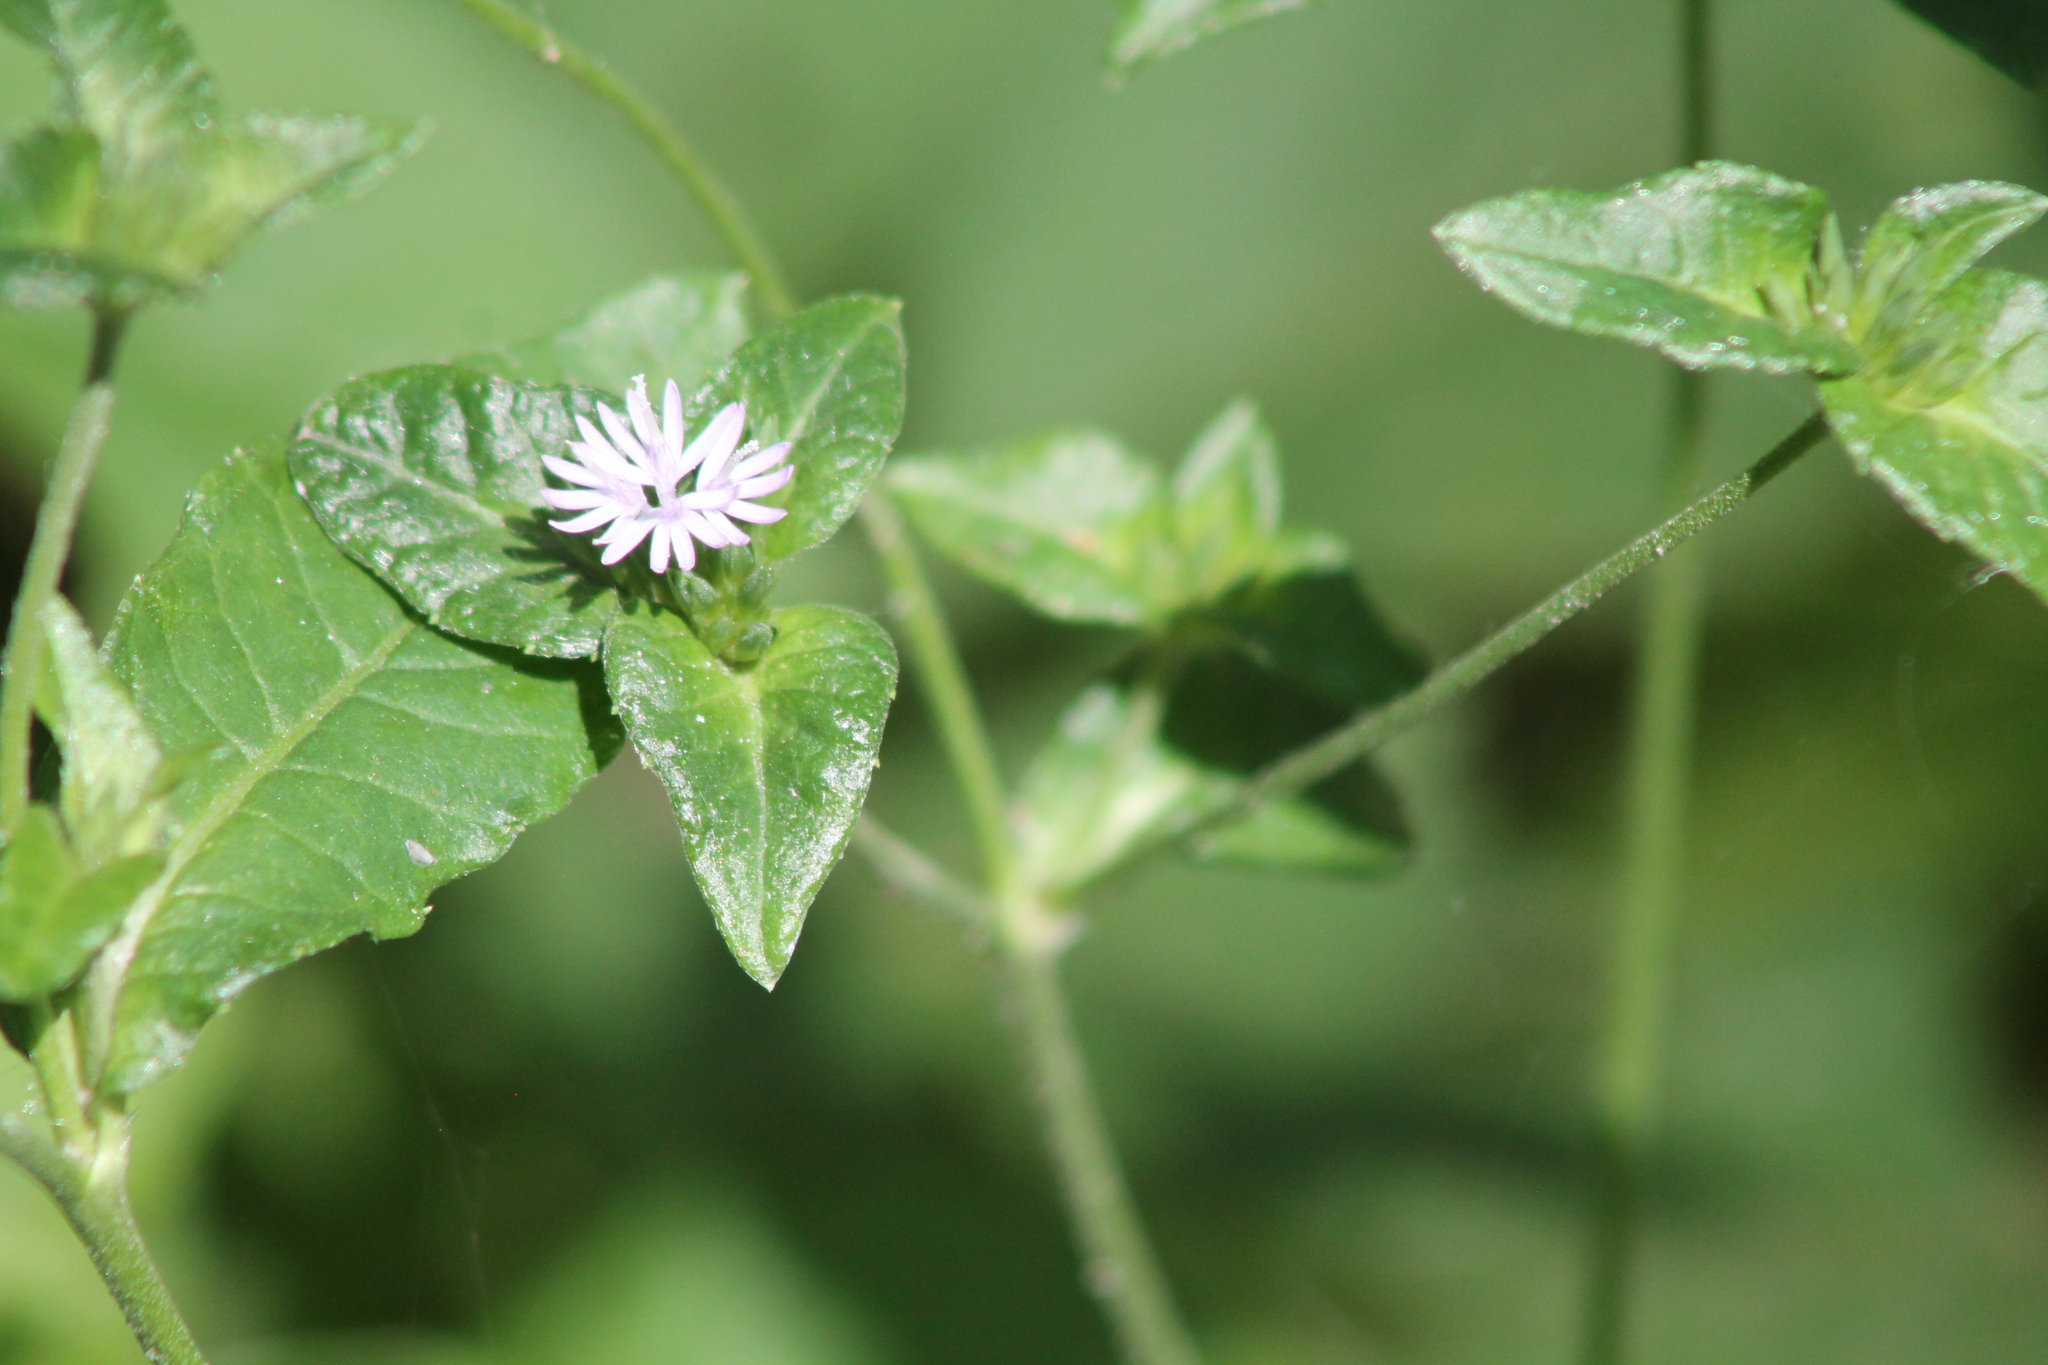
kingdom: Plantae
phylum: Tracheophyta
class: Magnoliopsida
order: Asterales
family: Asteraceae
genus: Elephantopus
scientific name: Elephantopus carolinianus
